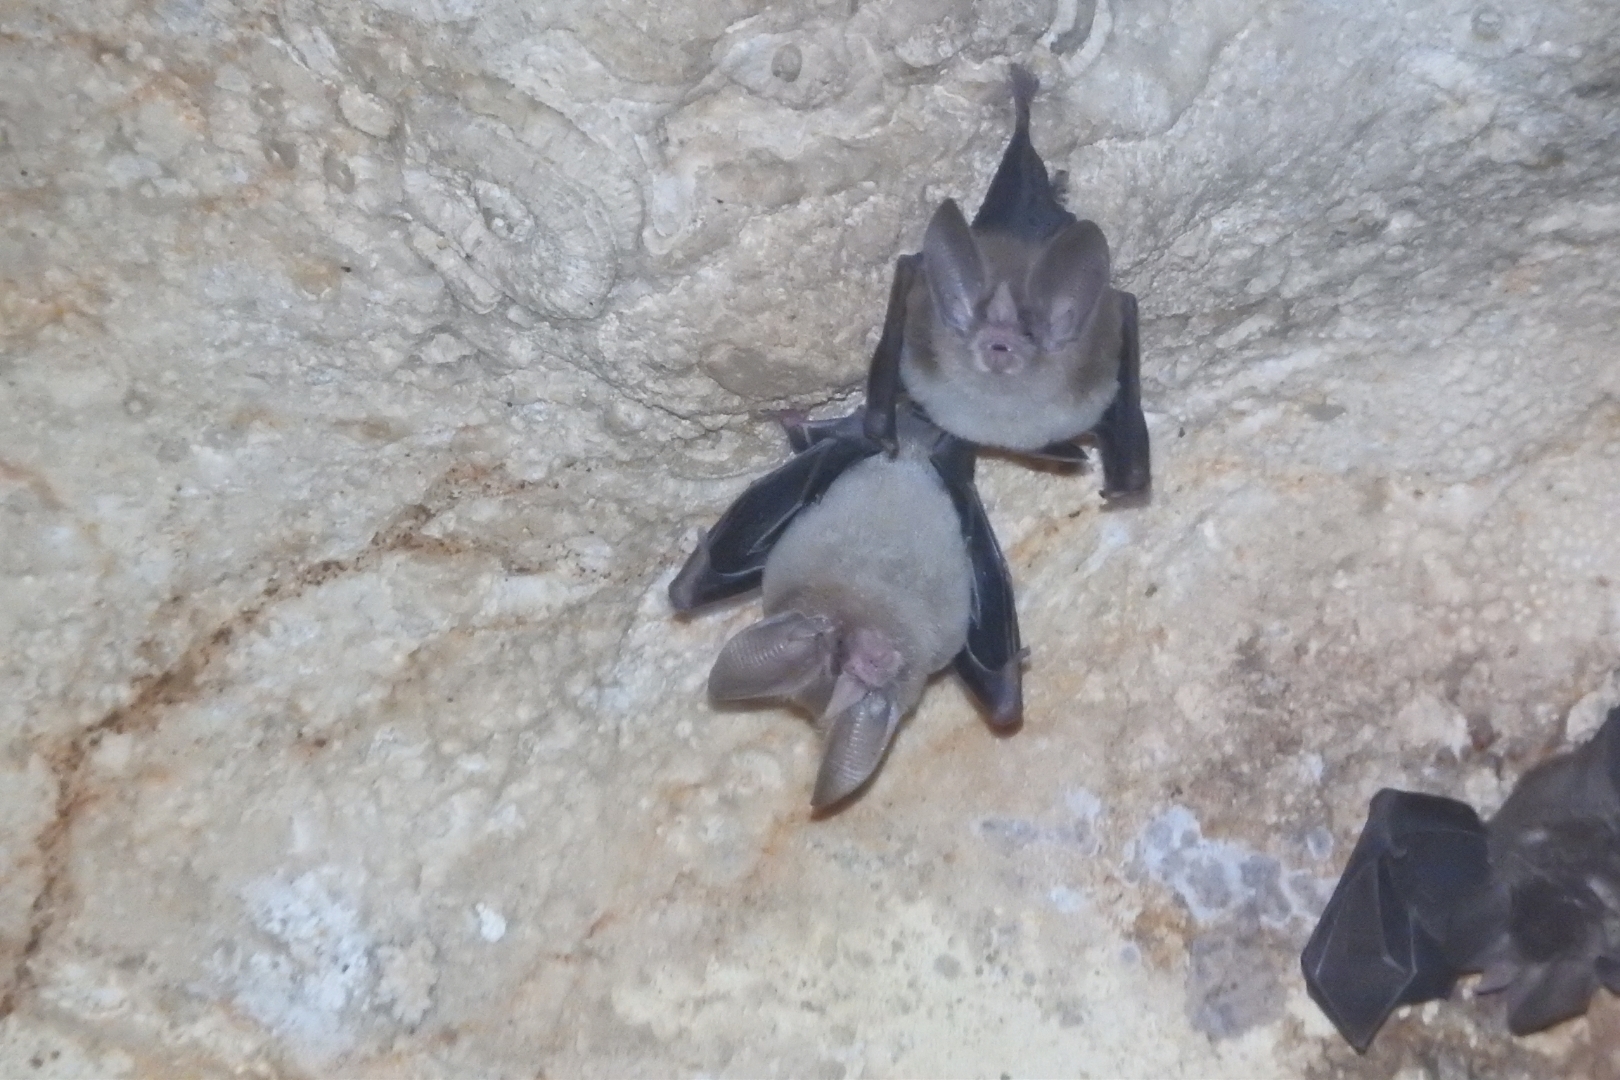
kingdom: Animalia
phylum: Chordata
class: Mammalia
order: Chiroptera
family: Phyllostomidae
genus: Micronycteris
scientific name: Micronycteris microtis
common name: Common big-eared bat
